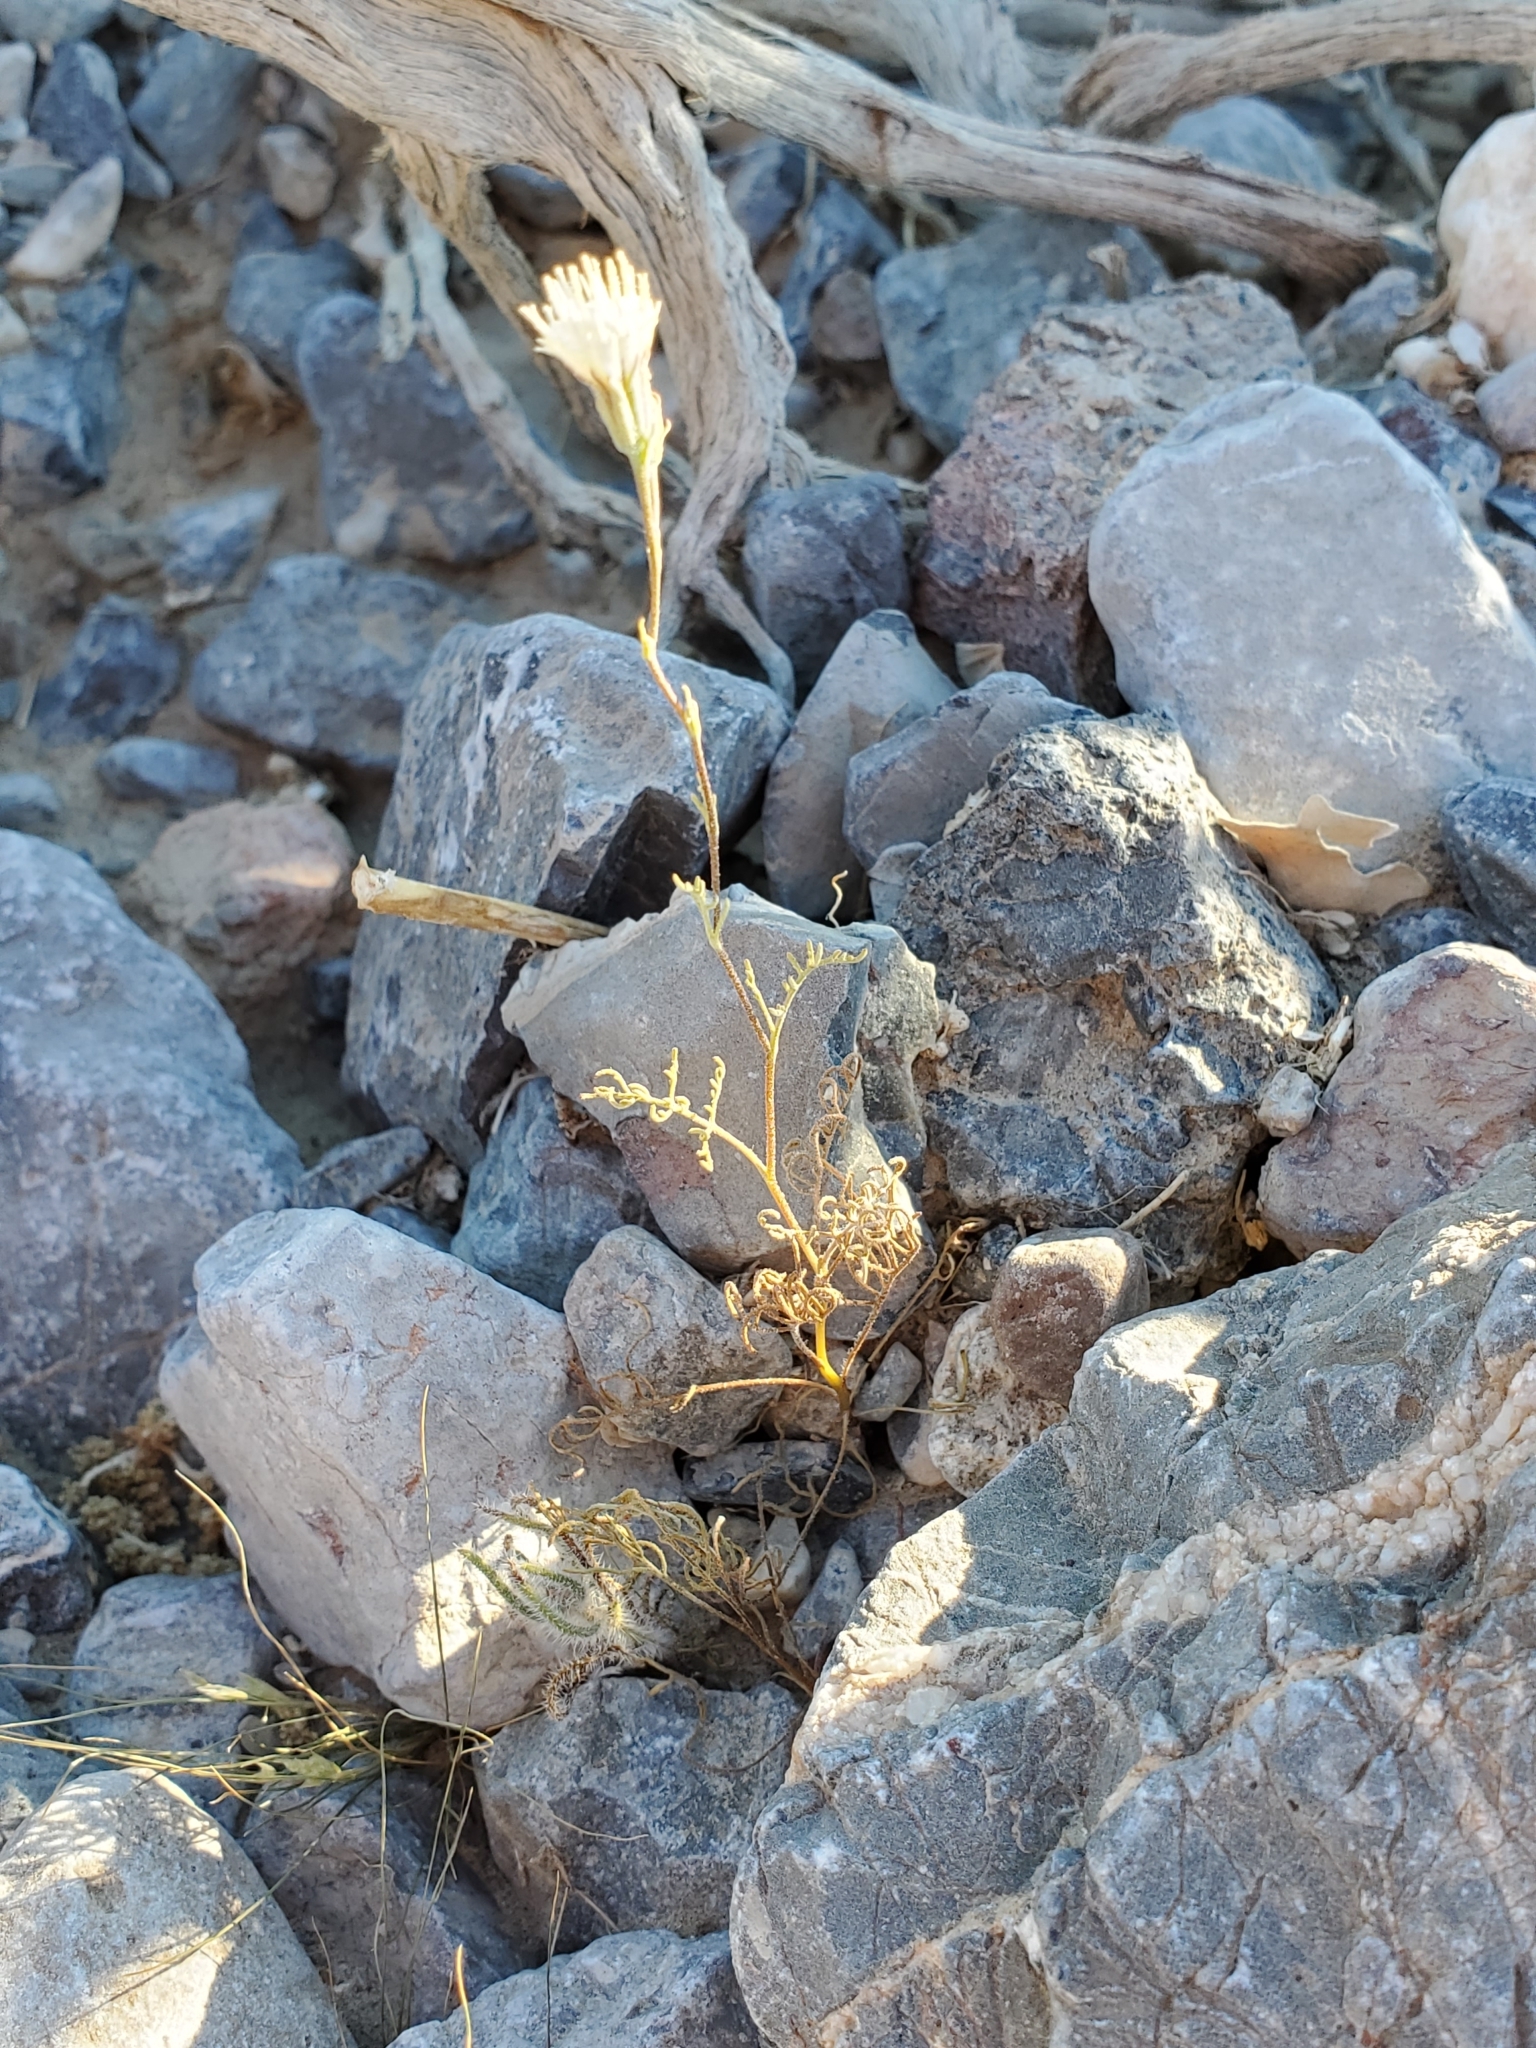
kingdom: Plantae
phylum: Tracheophyta
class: Magnoliopsida
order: Asterales
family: Asteraceae
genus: Chaenactis
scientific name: Chaenactis carphoclinia
